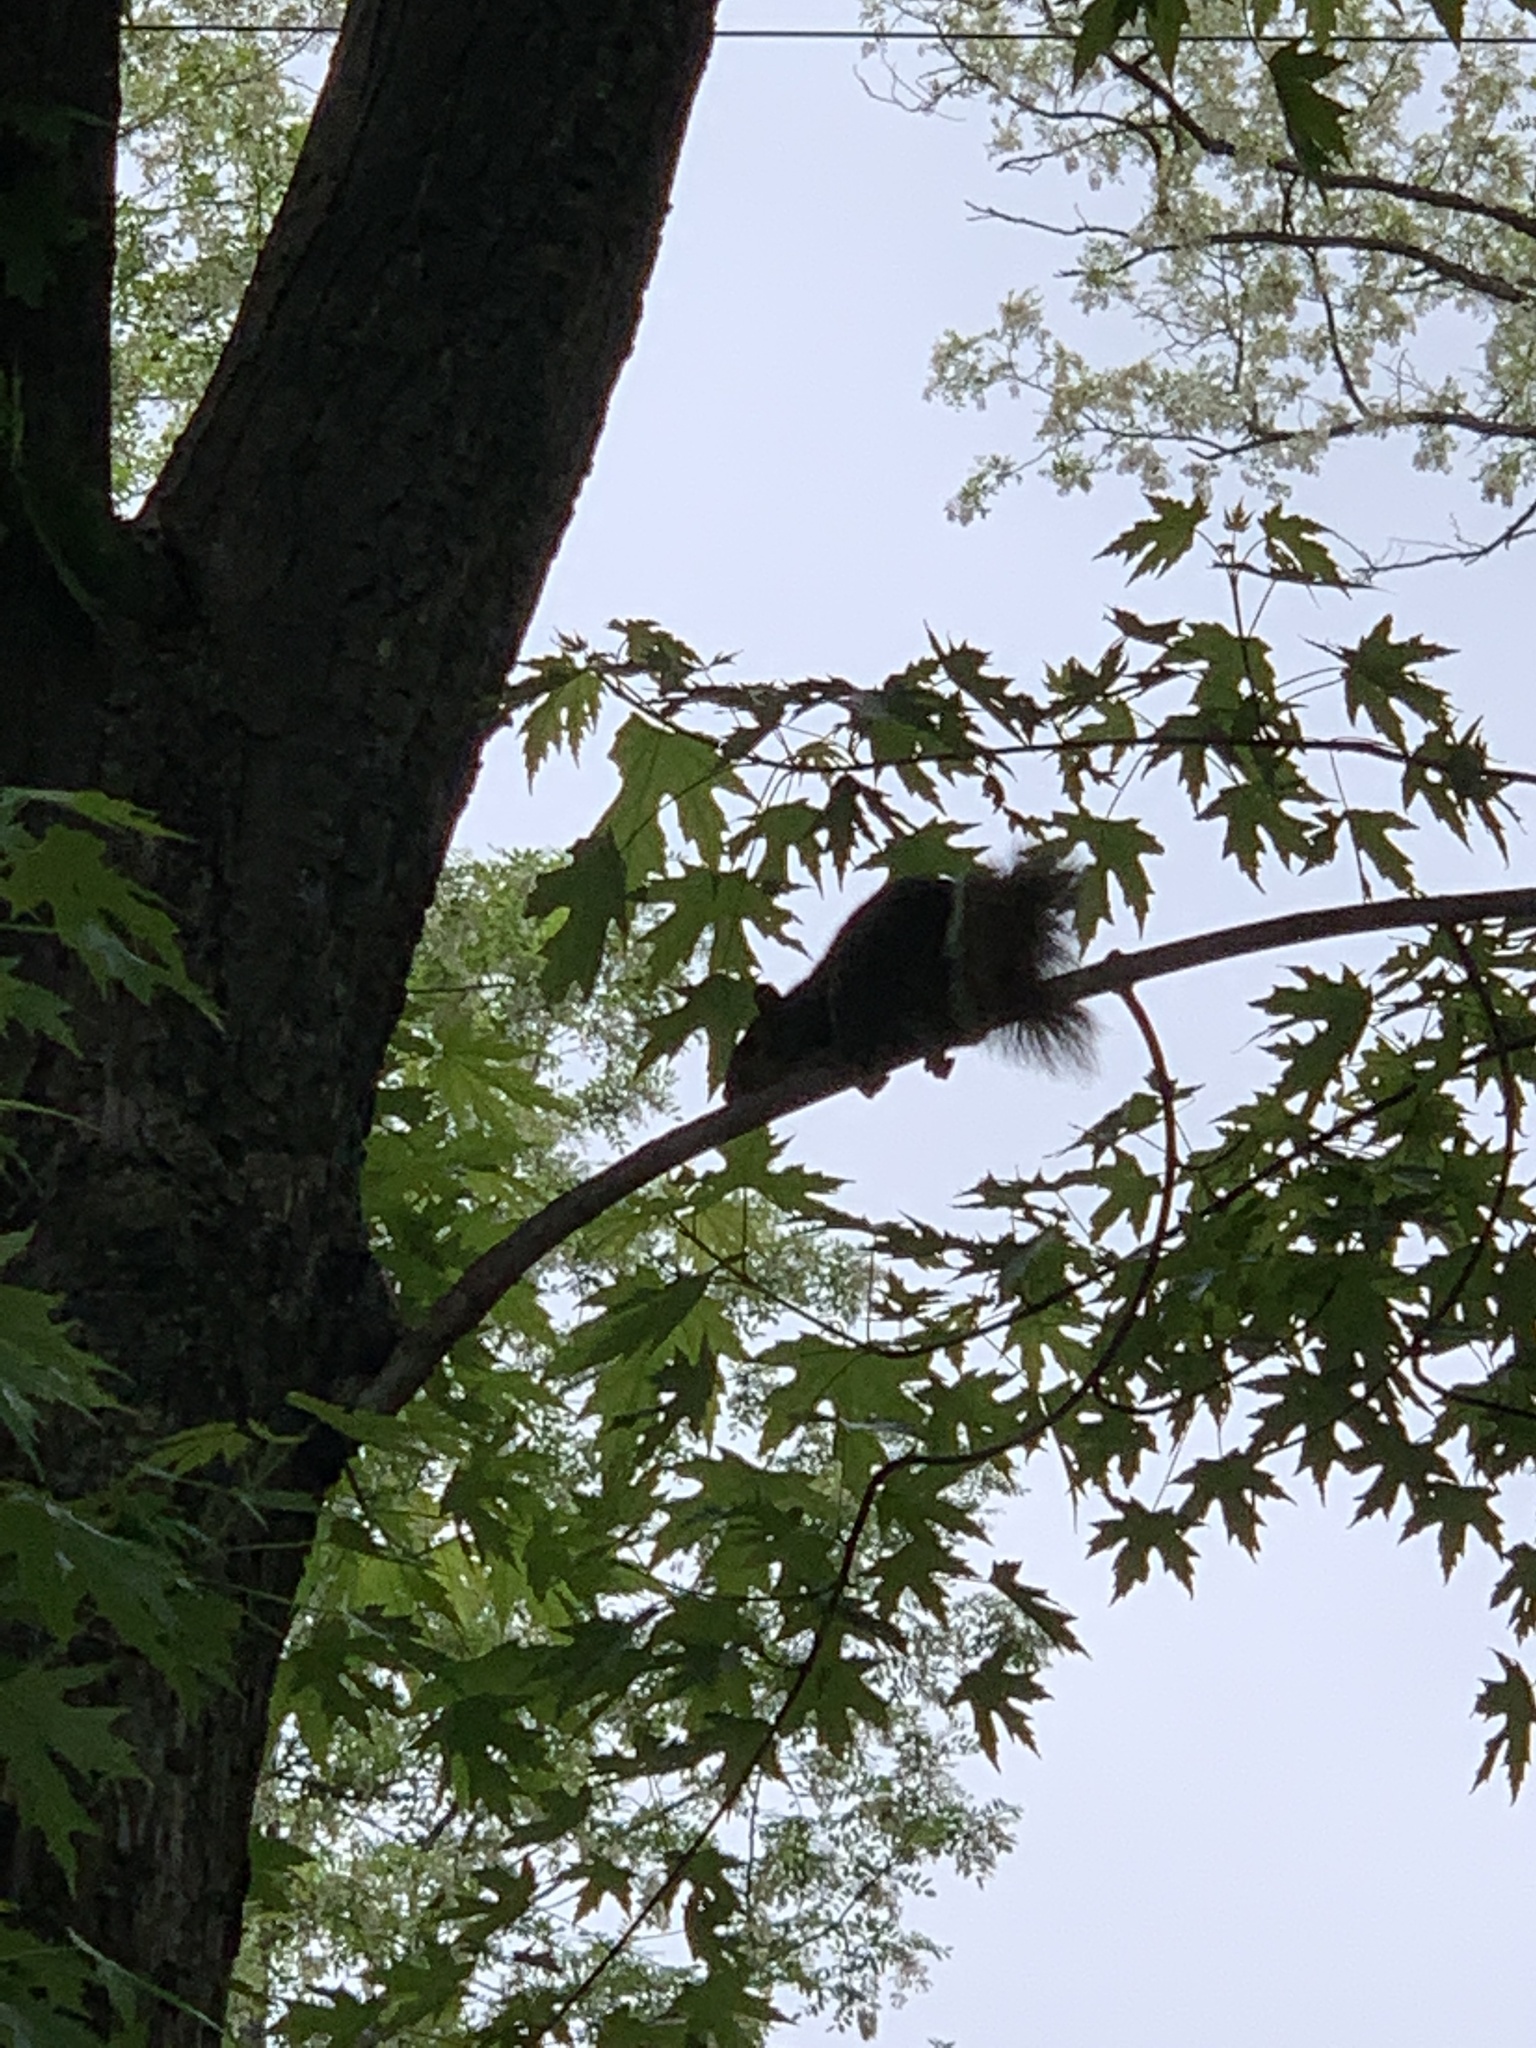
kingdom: Animalia
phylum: Chordata
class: Mammalia
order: Rodentia
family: Sciuridae
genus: Sciurus
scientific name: Sciurus carolinensis
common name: Eastern gray squirrel
